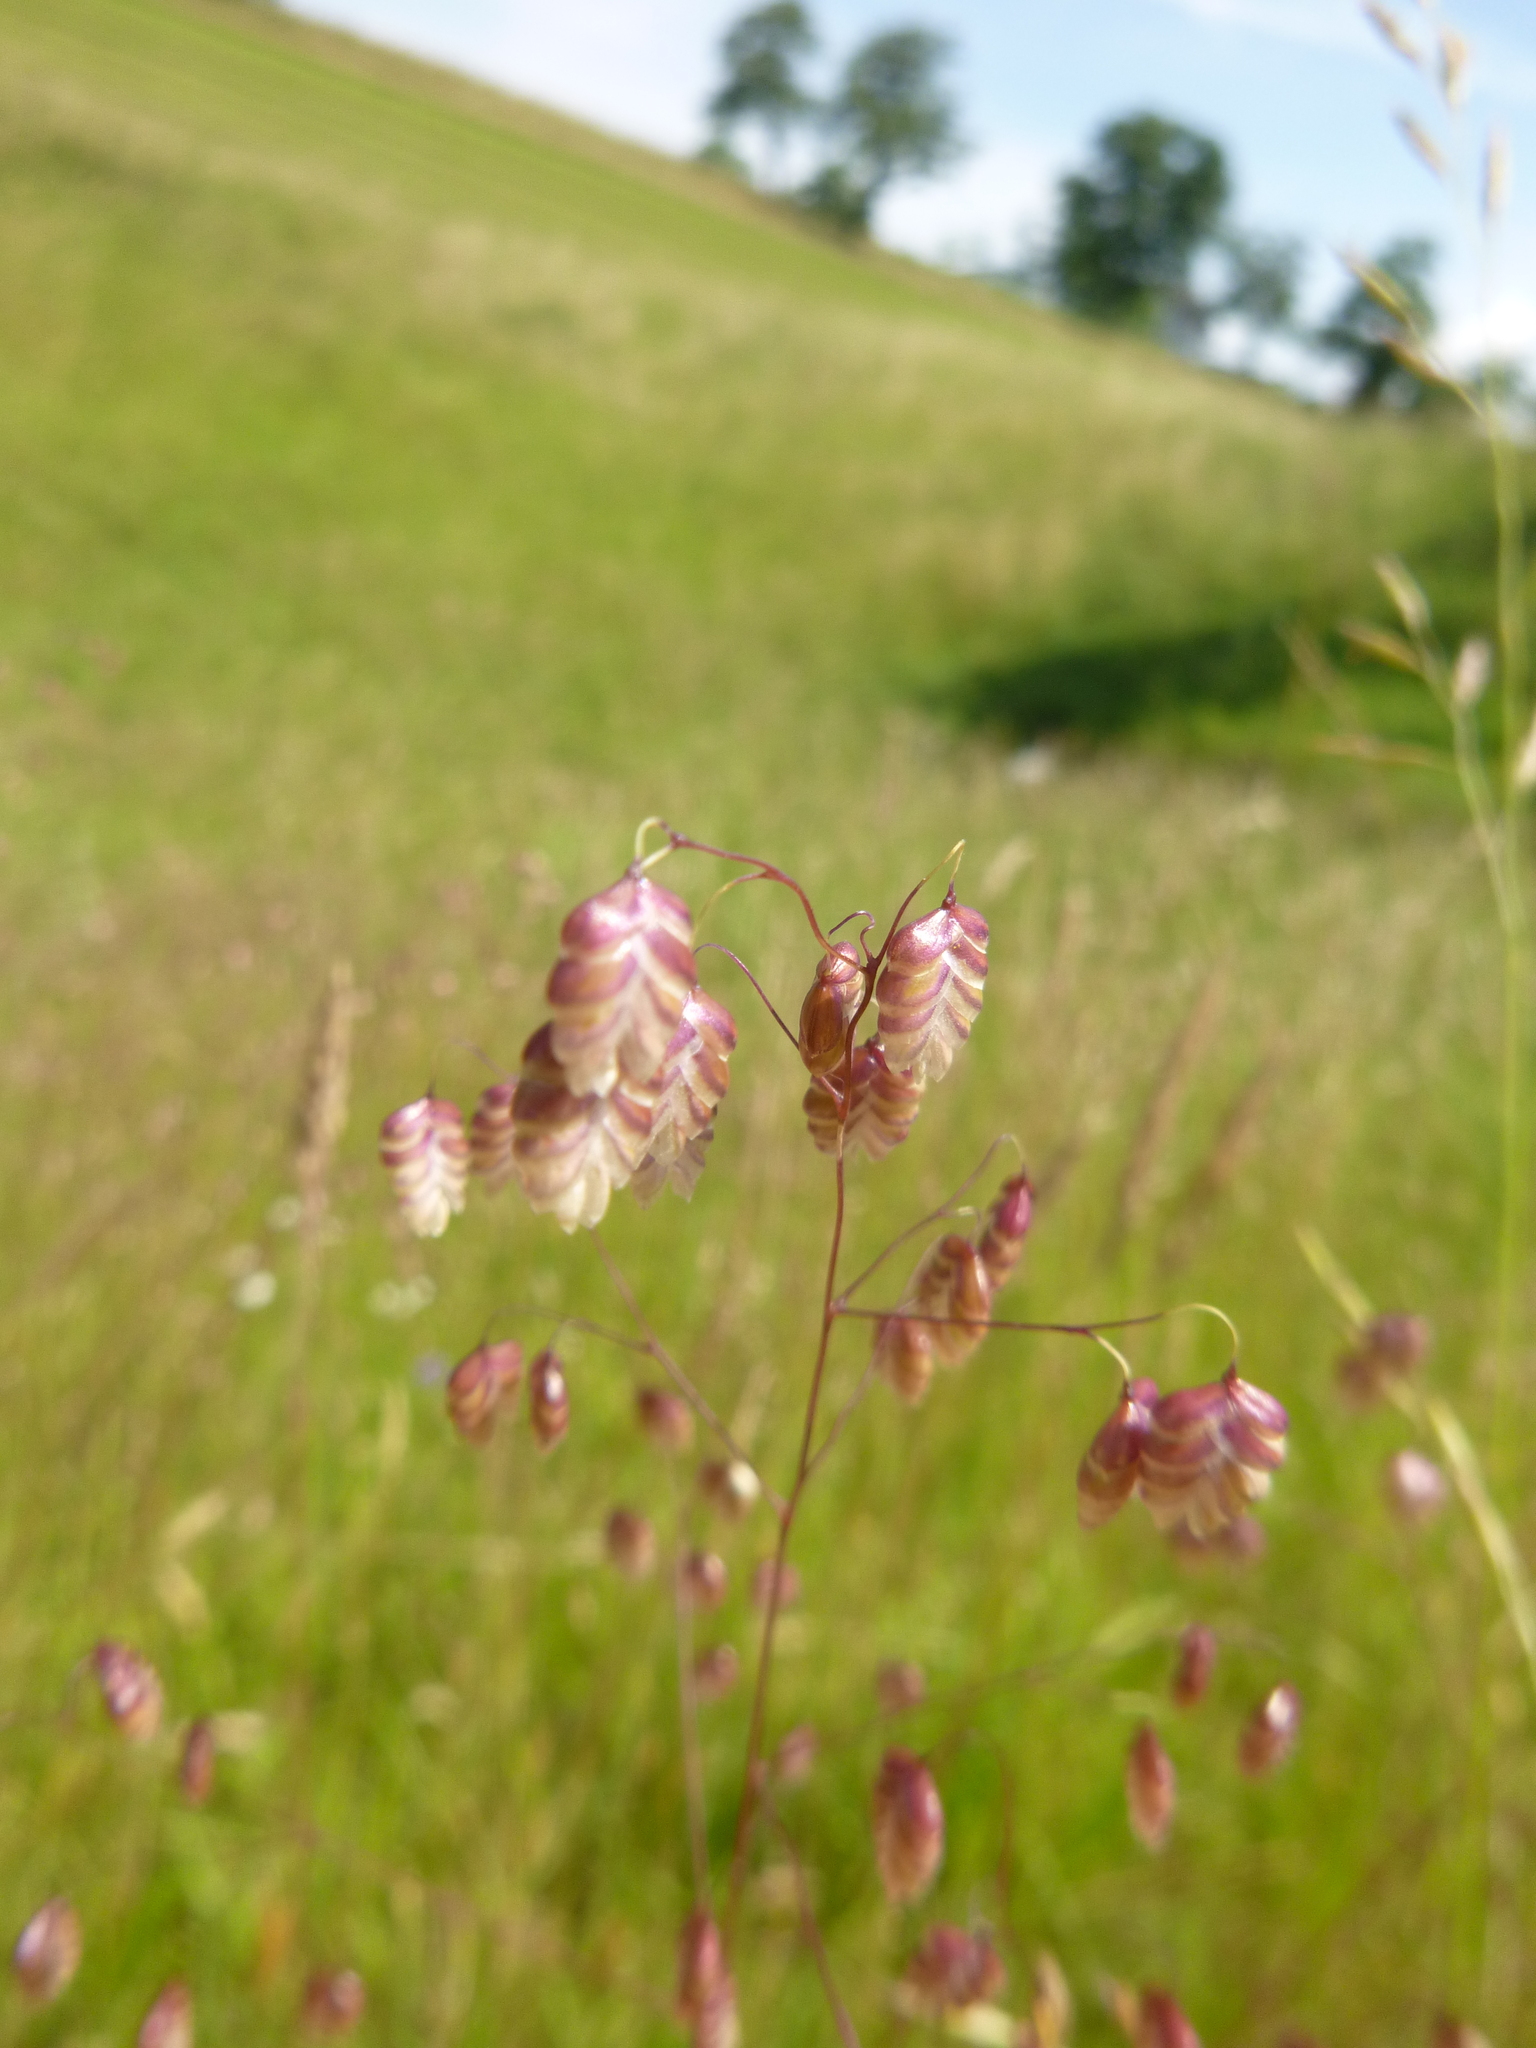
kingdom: Plantae
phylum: Tracheophyta
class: Liliopsida
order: Poales
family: Poaceae
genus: Briza
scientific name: Briza media
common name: Quaking grass
